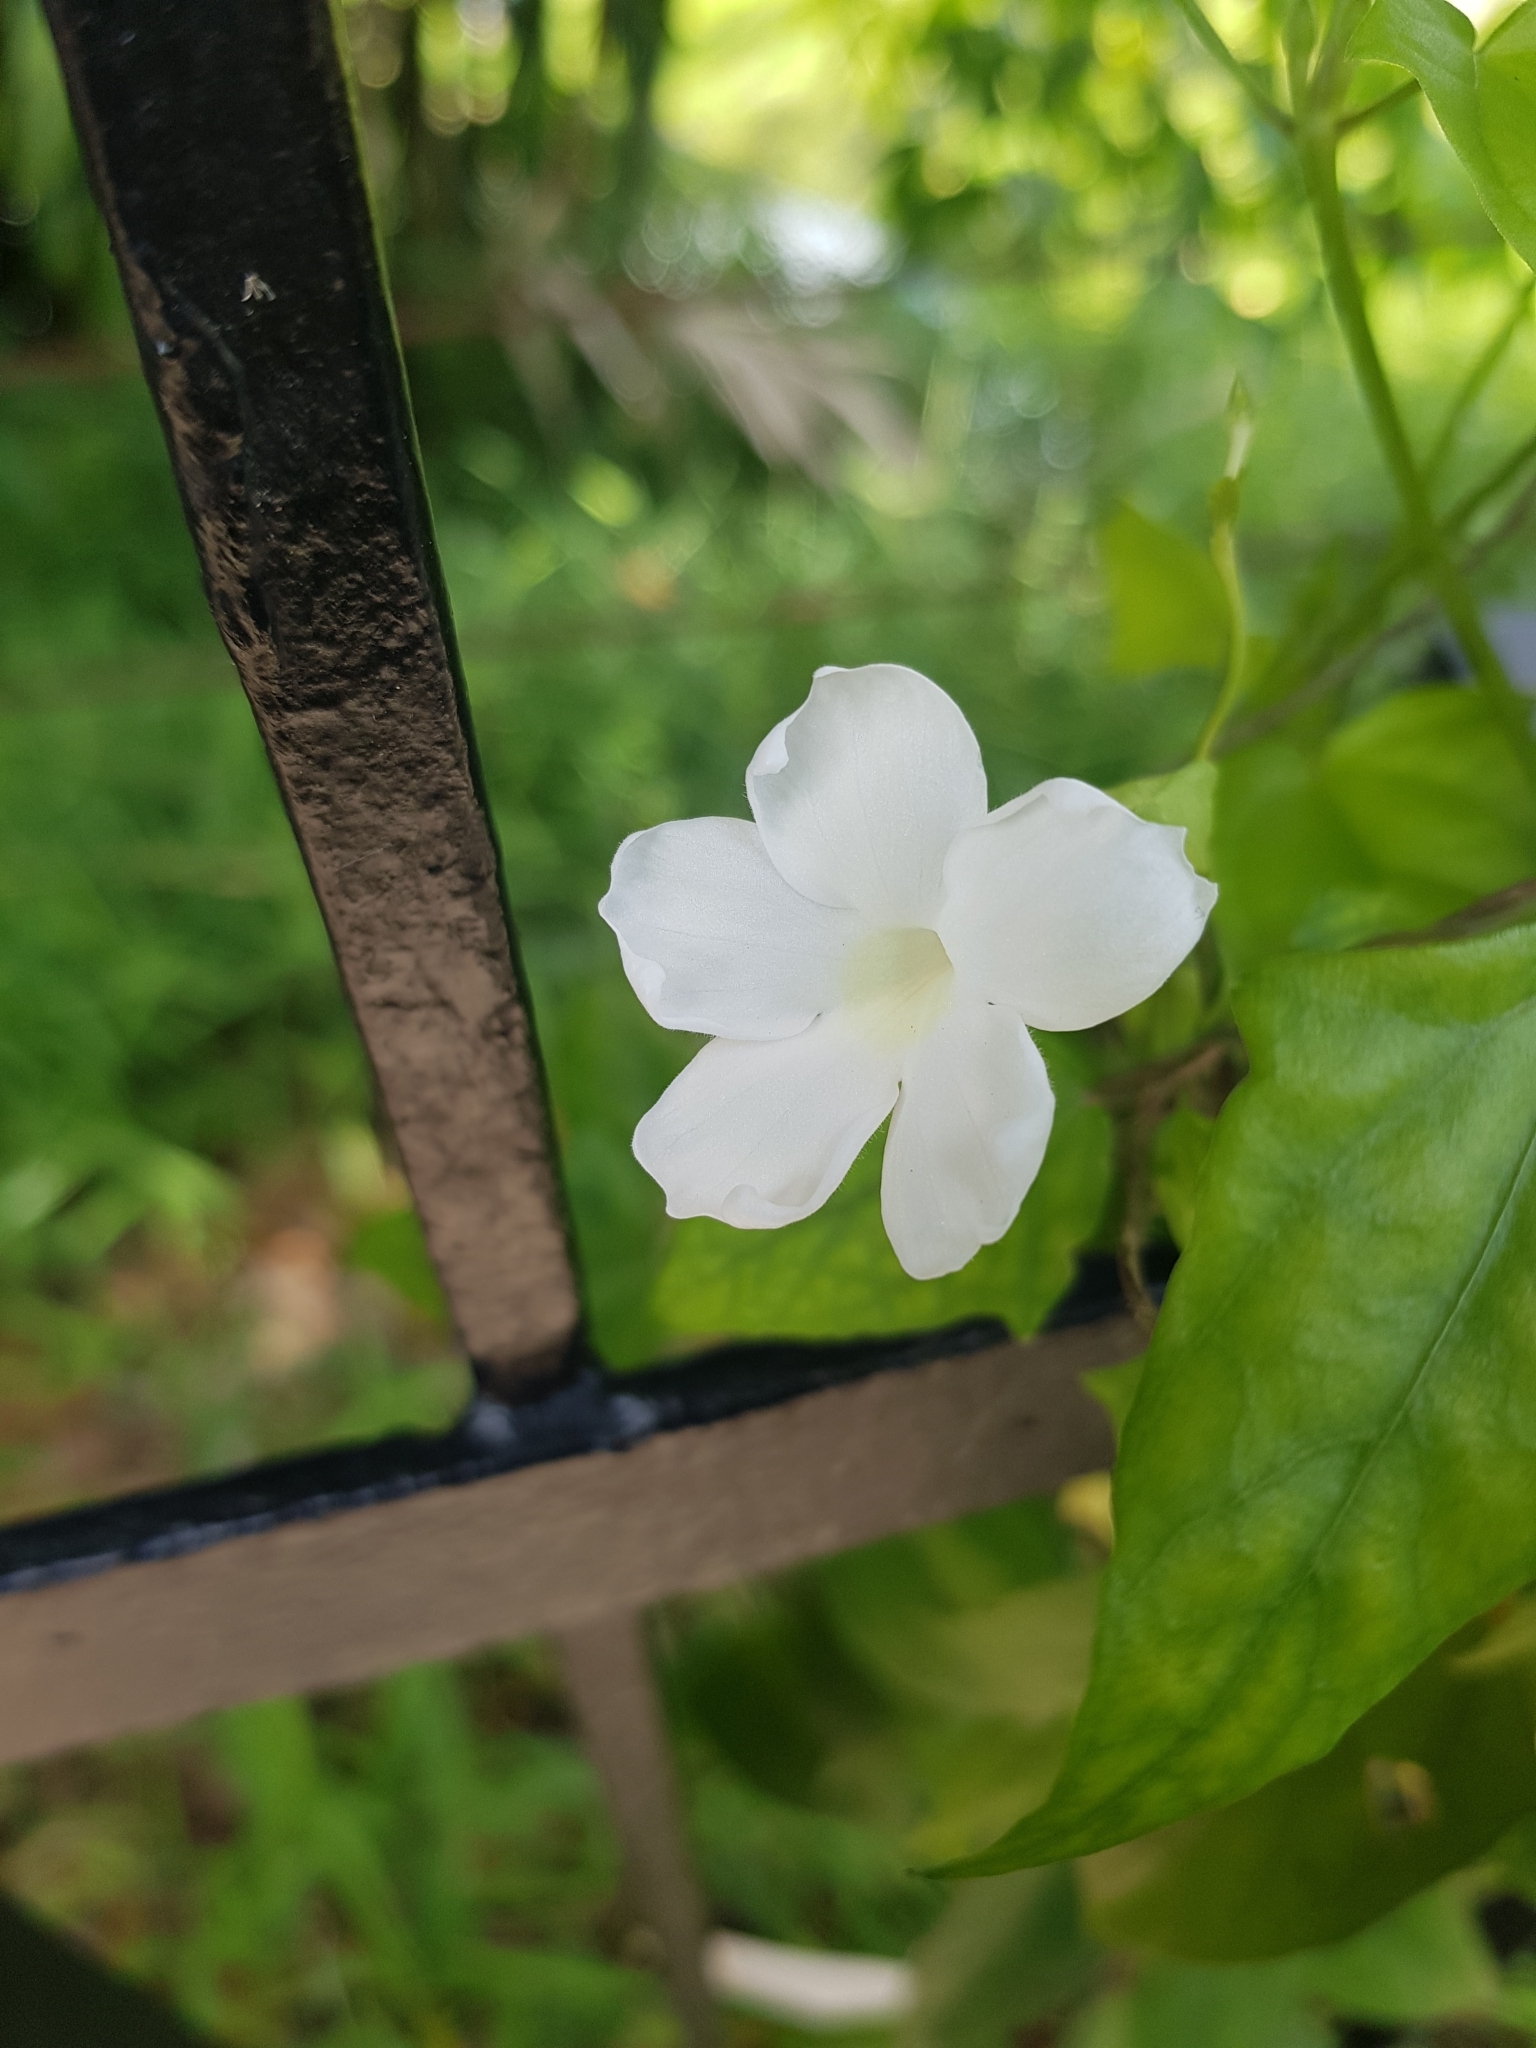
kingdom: Plantae
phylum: Tracheophyta
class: Magnoliopsida
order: Lamiales
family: Acanthaceae
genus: Thunbergia
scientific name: Thunbergia fragrans
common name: Whitelady
